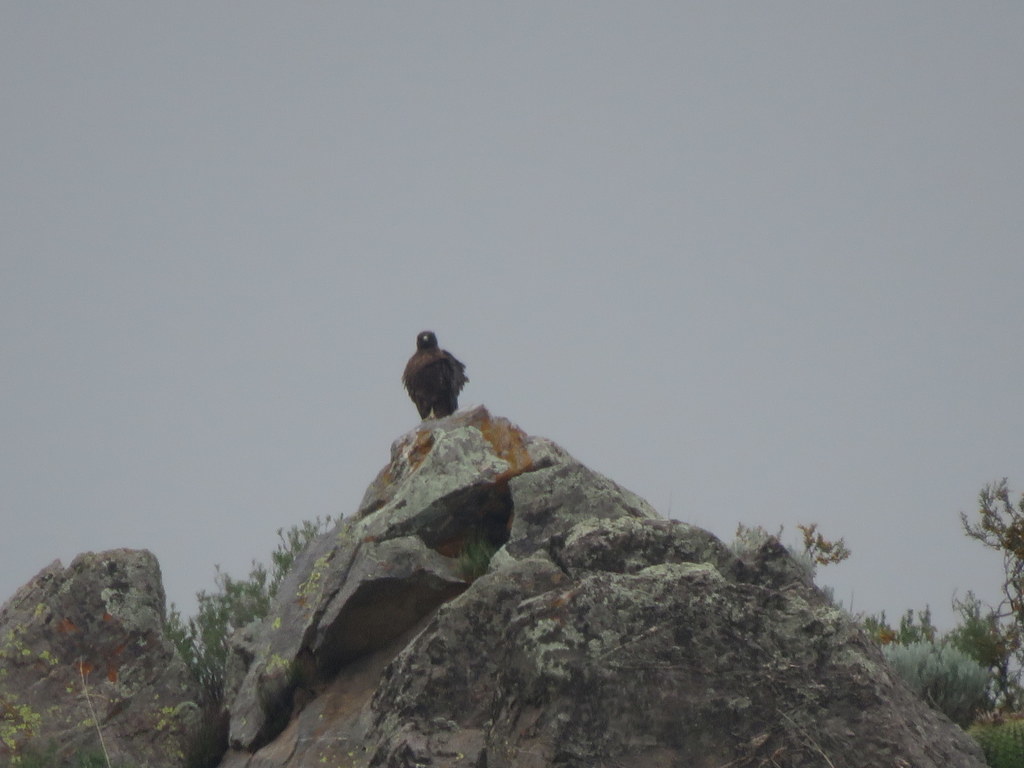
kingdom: Animalia
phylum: Chordata
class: Aves
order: Accipitriformes
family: Accipitridae
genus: Buteo
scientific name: Buteo polyosoma
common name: Variable hawk
